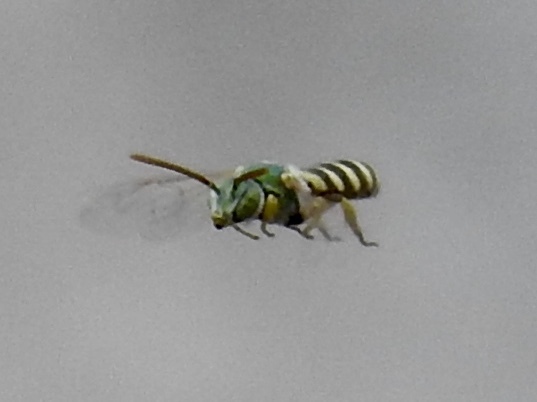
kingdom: Animalia
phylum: Arthropoda
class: Insecta
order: Hymenoptera
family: Halictidae
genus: Agapostemon
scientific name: Agapostemon
